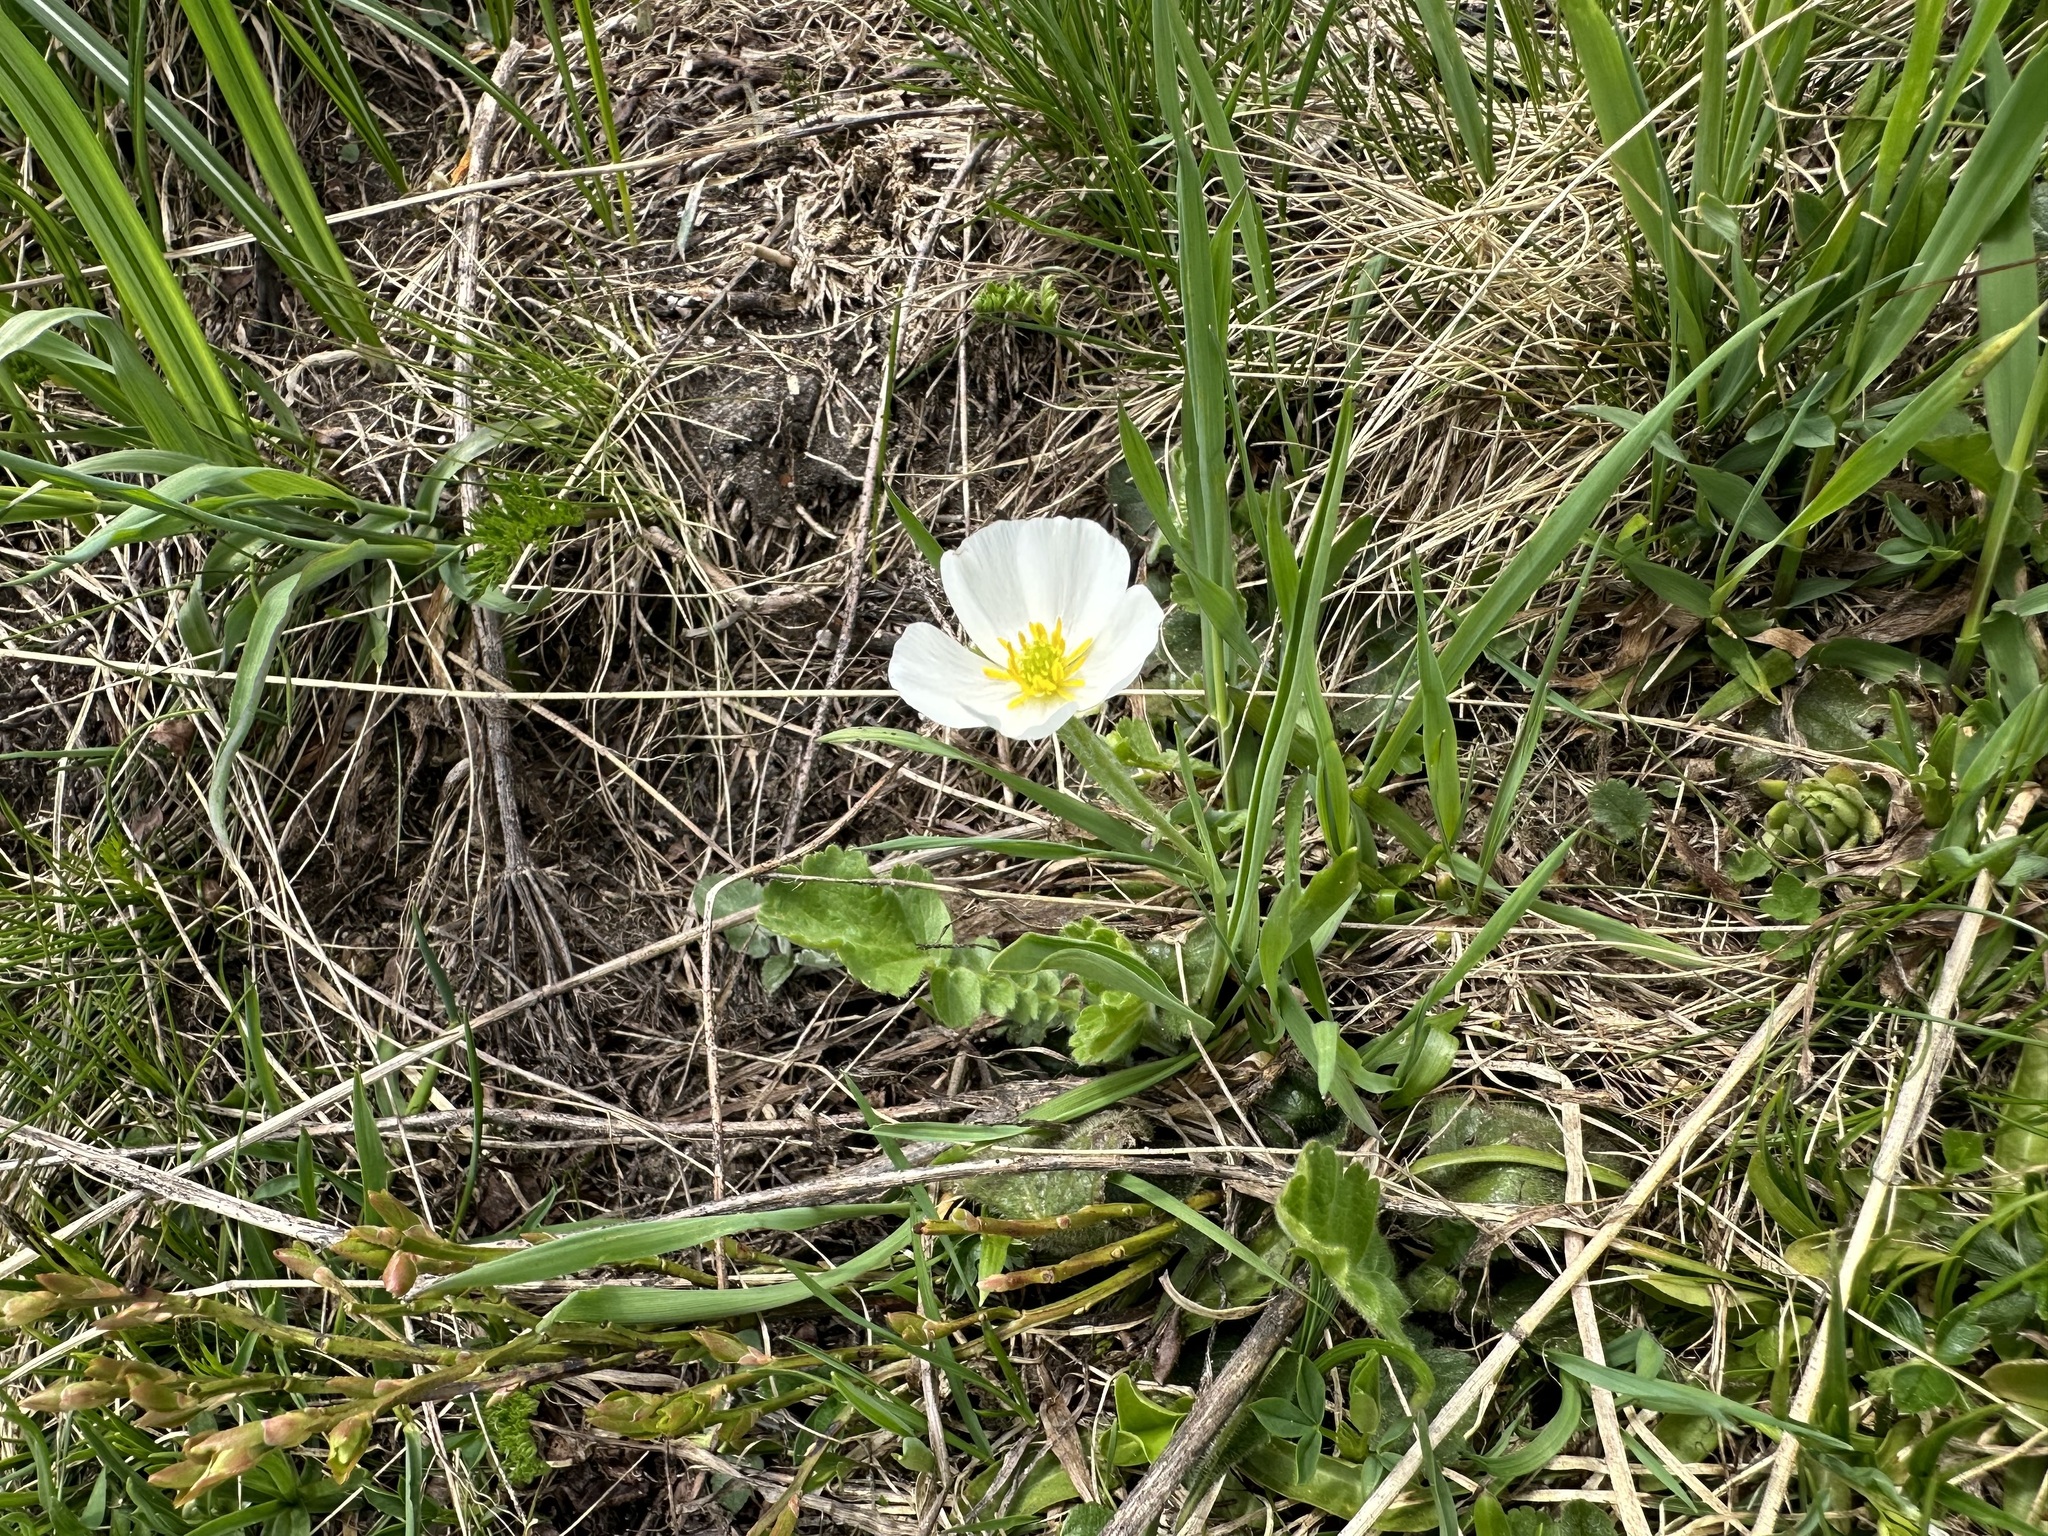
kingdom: Plantae
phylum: Tracheophyta
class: Magnoliopsida
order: Ranunculales
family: Ranunculaceae
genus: Ranunculus
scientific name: Ranunculus kuepferi
